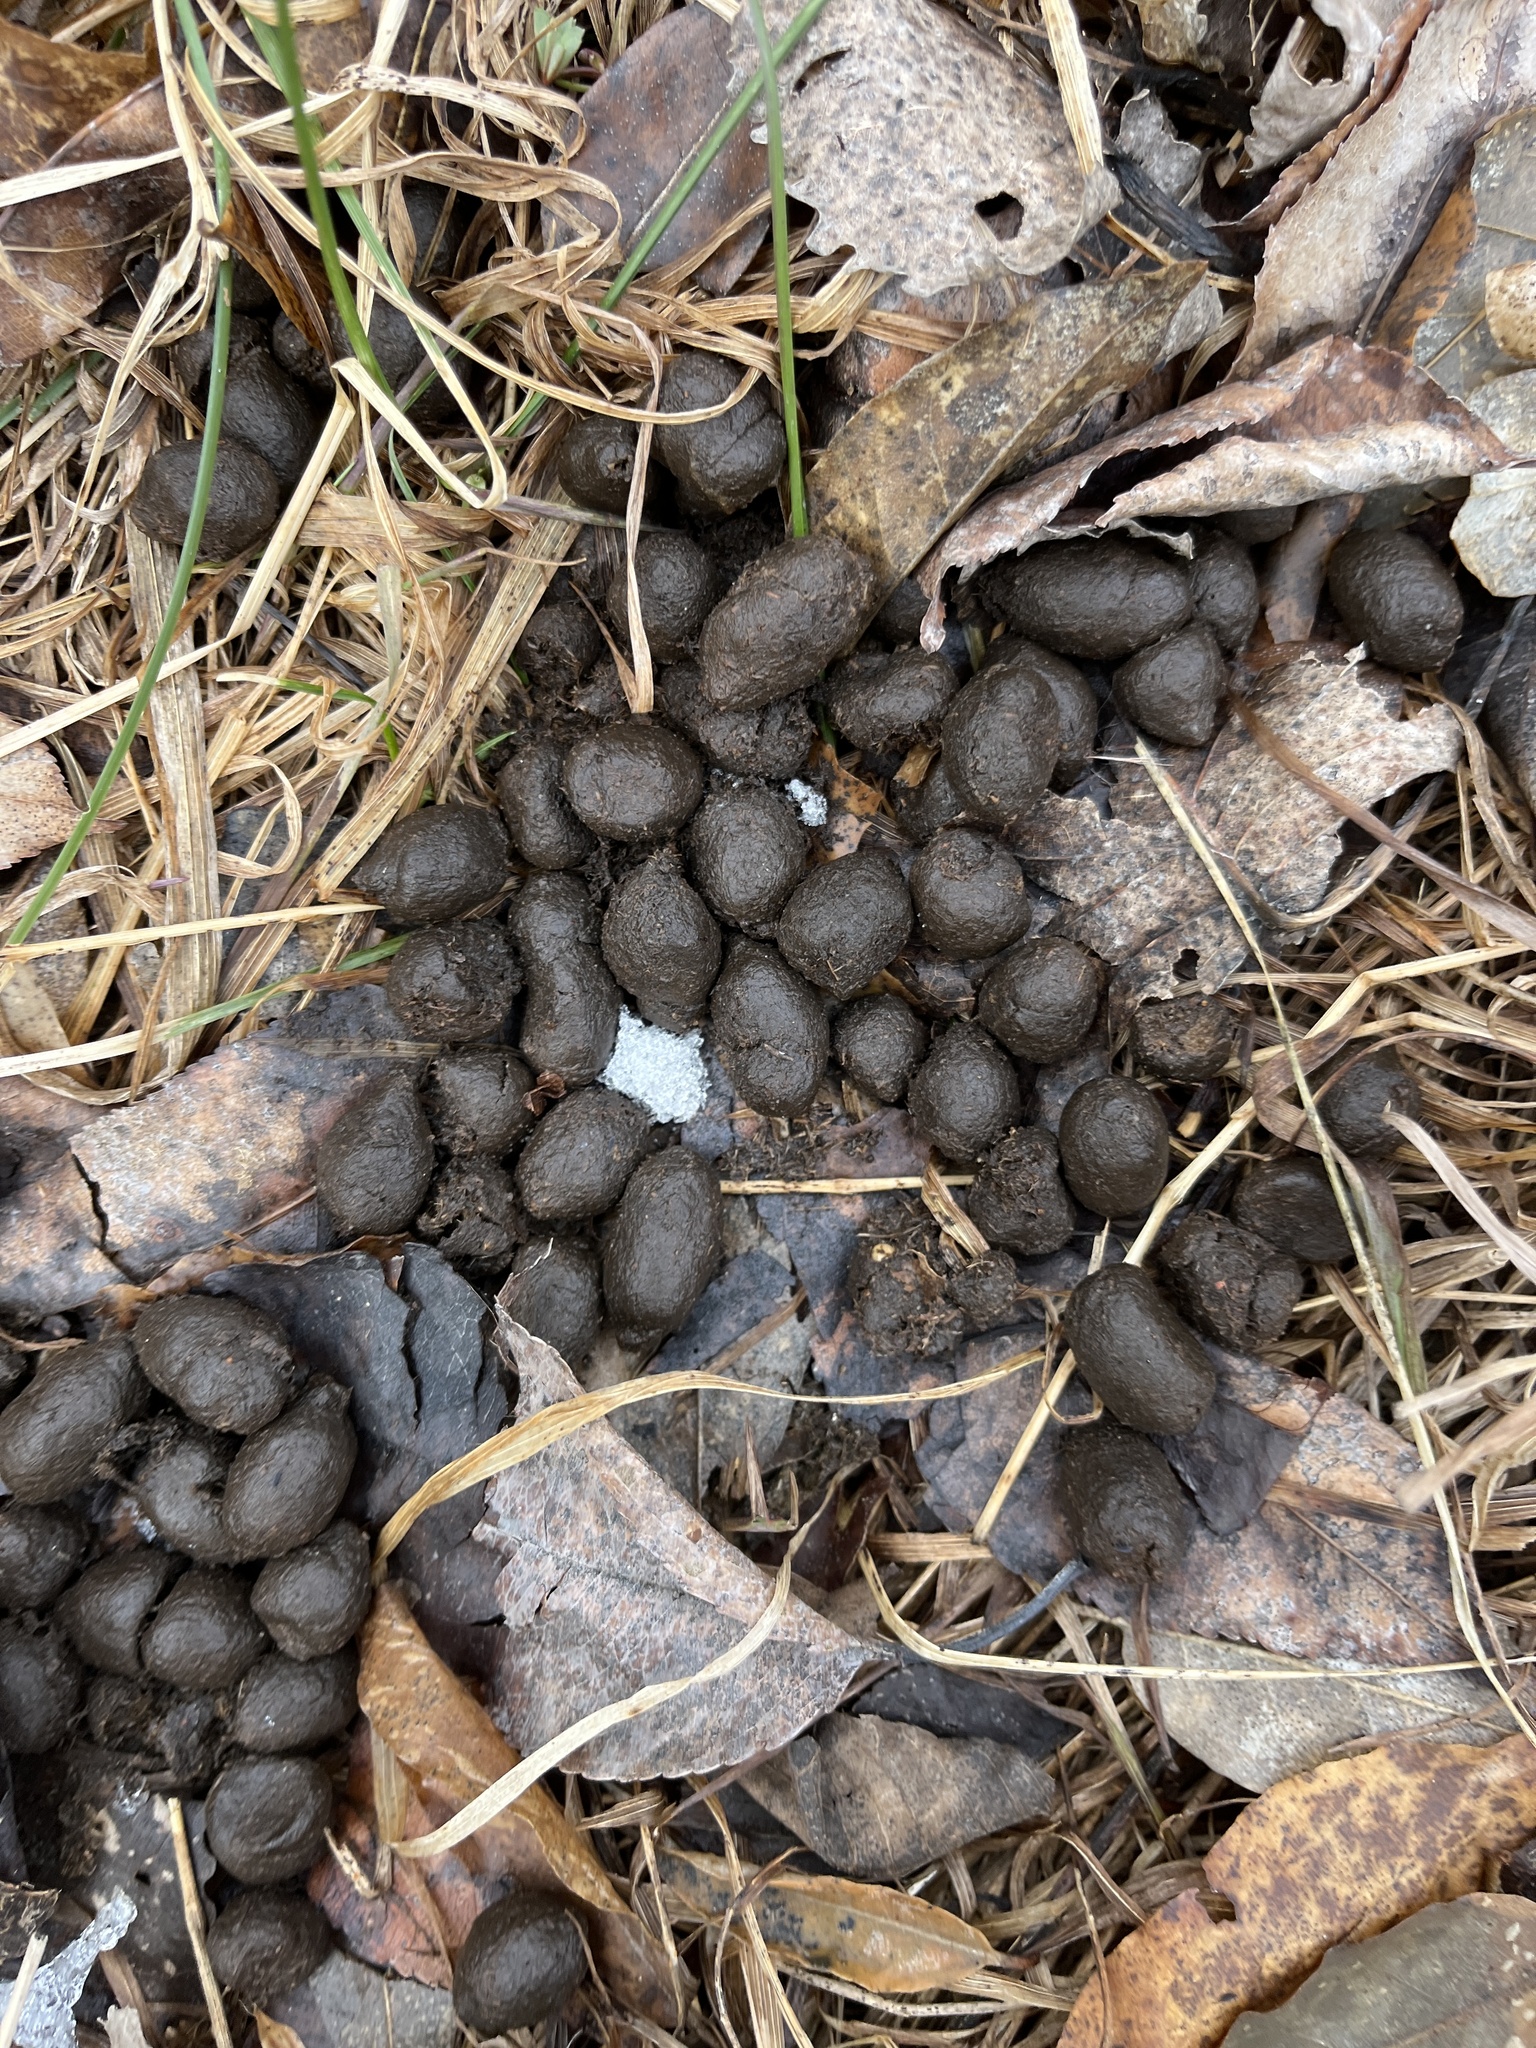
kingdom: Animalia
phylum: Chordata
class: Mammalia
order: Artiodactyla
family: Cervidae
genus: Odocoileus
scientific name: Odocoileus virginianus
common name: White-tailed deer
